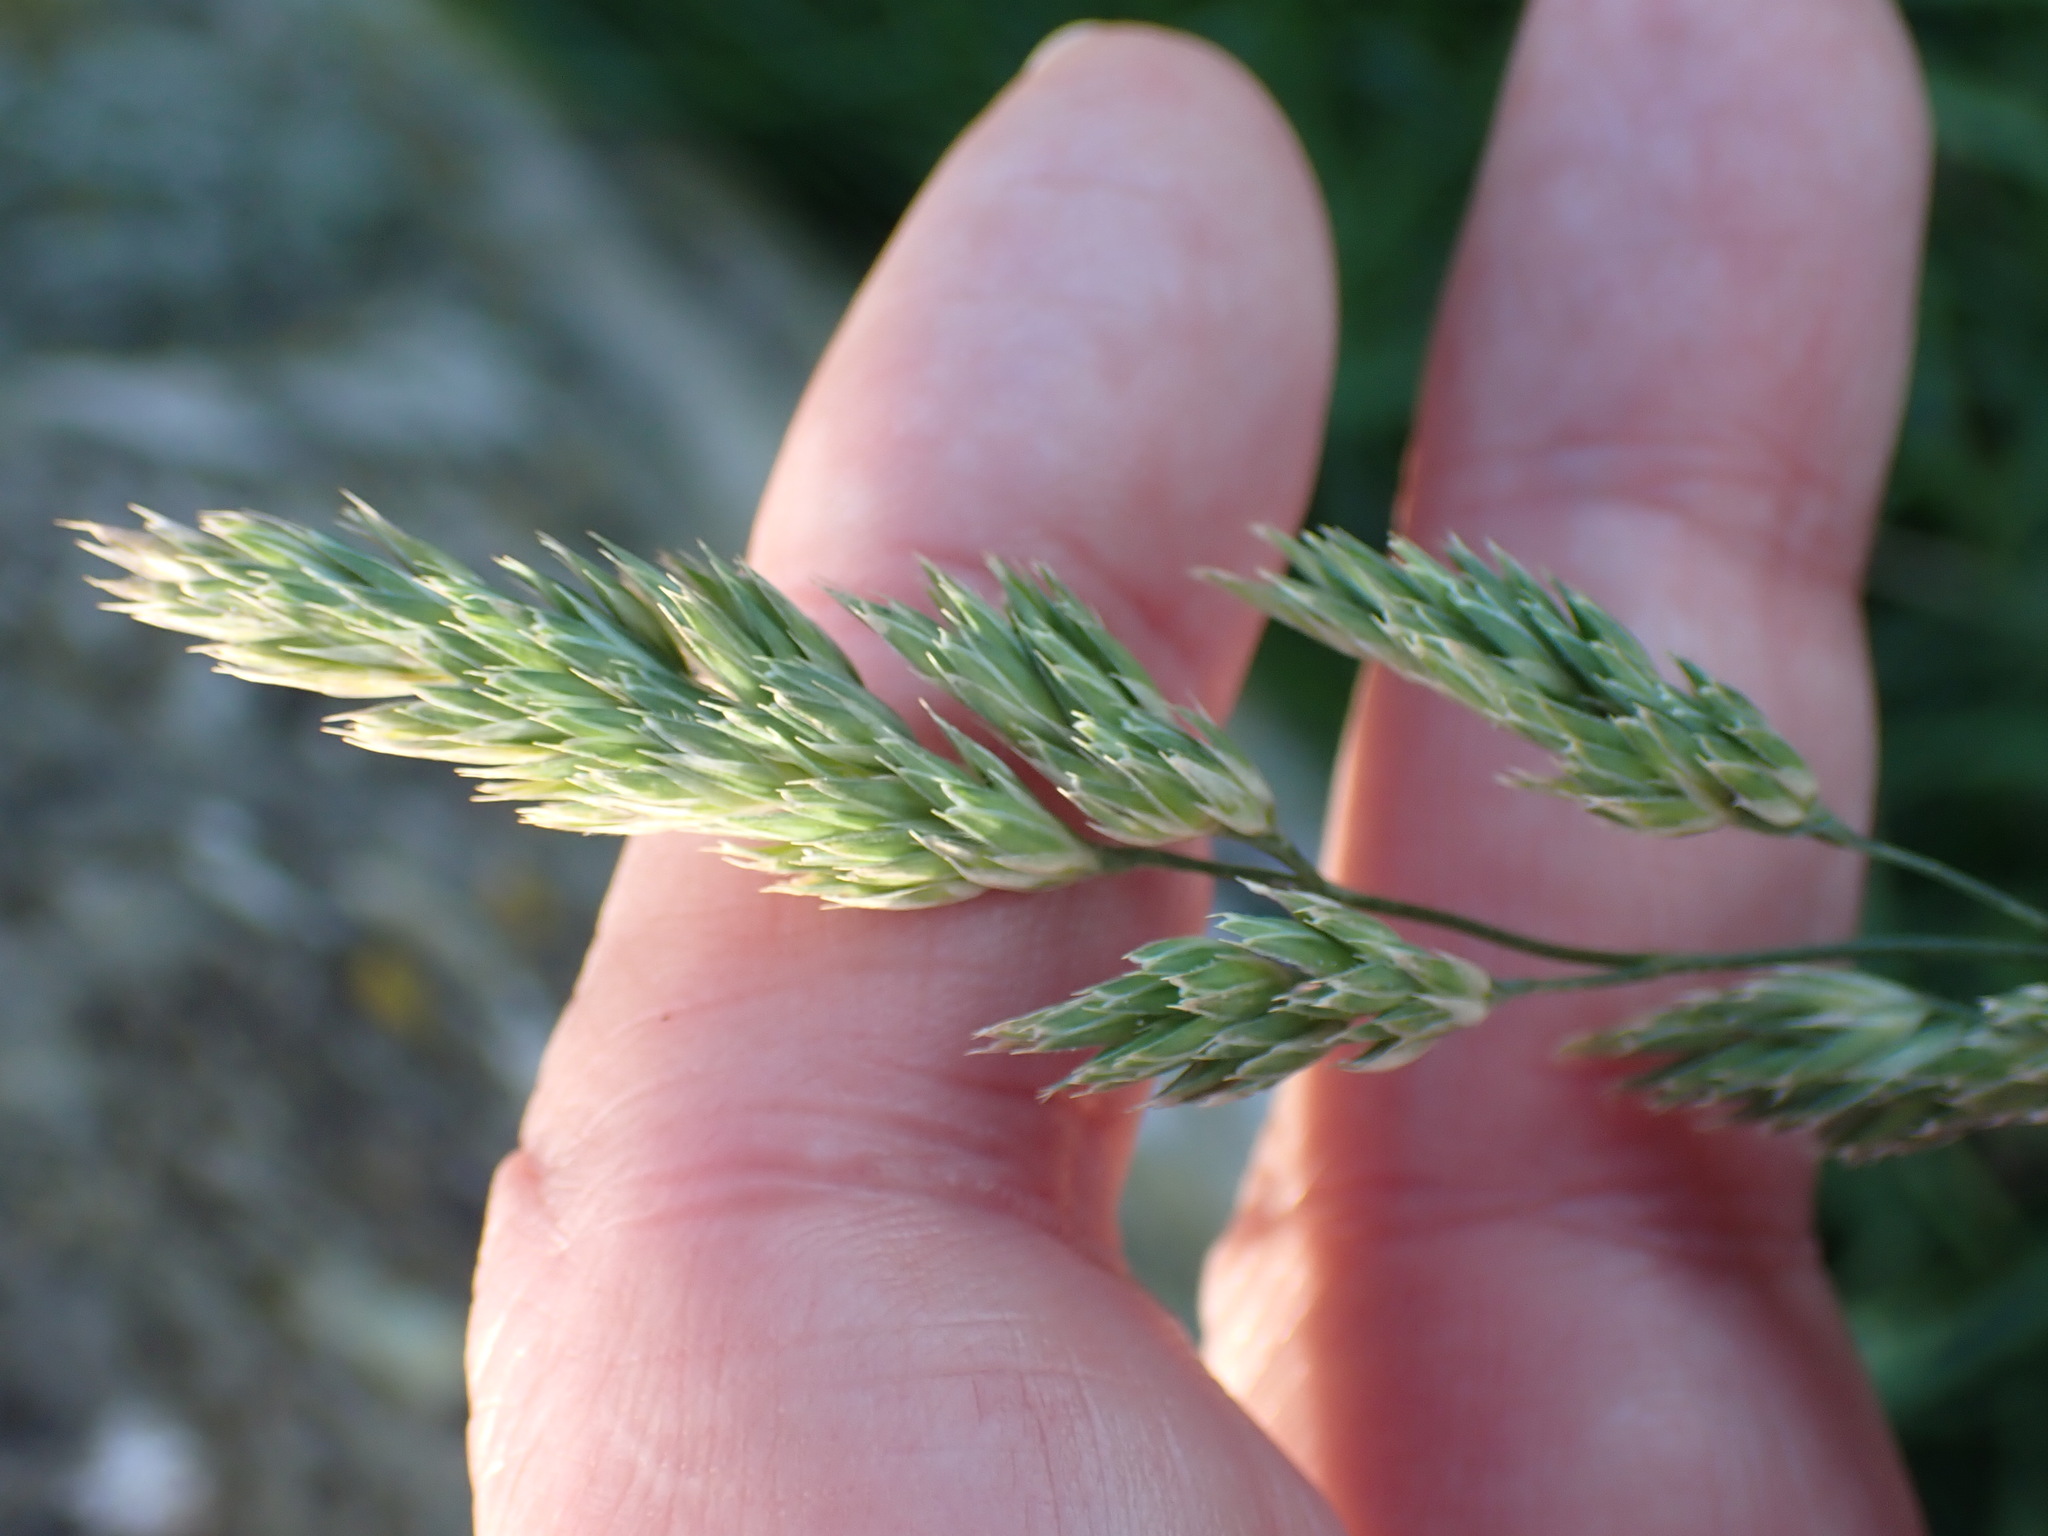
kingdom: Plantae
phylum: Tracheophyta
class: Liliopsida
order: Poales
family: Poaceae
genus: Dactylis
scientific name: Dactylis glomerata
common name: Orchardgrass
